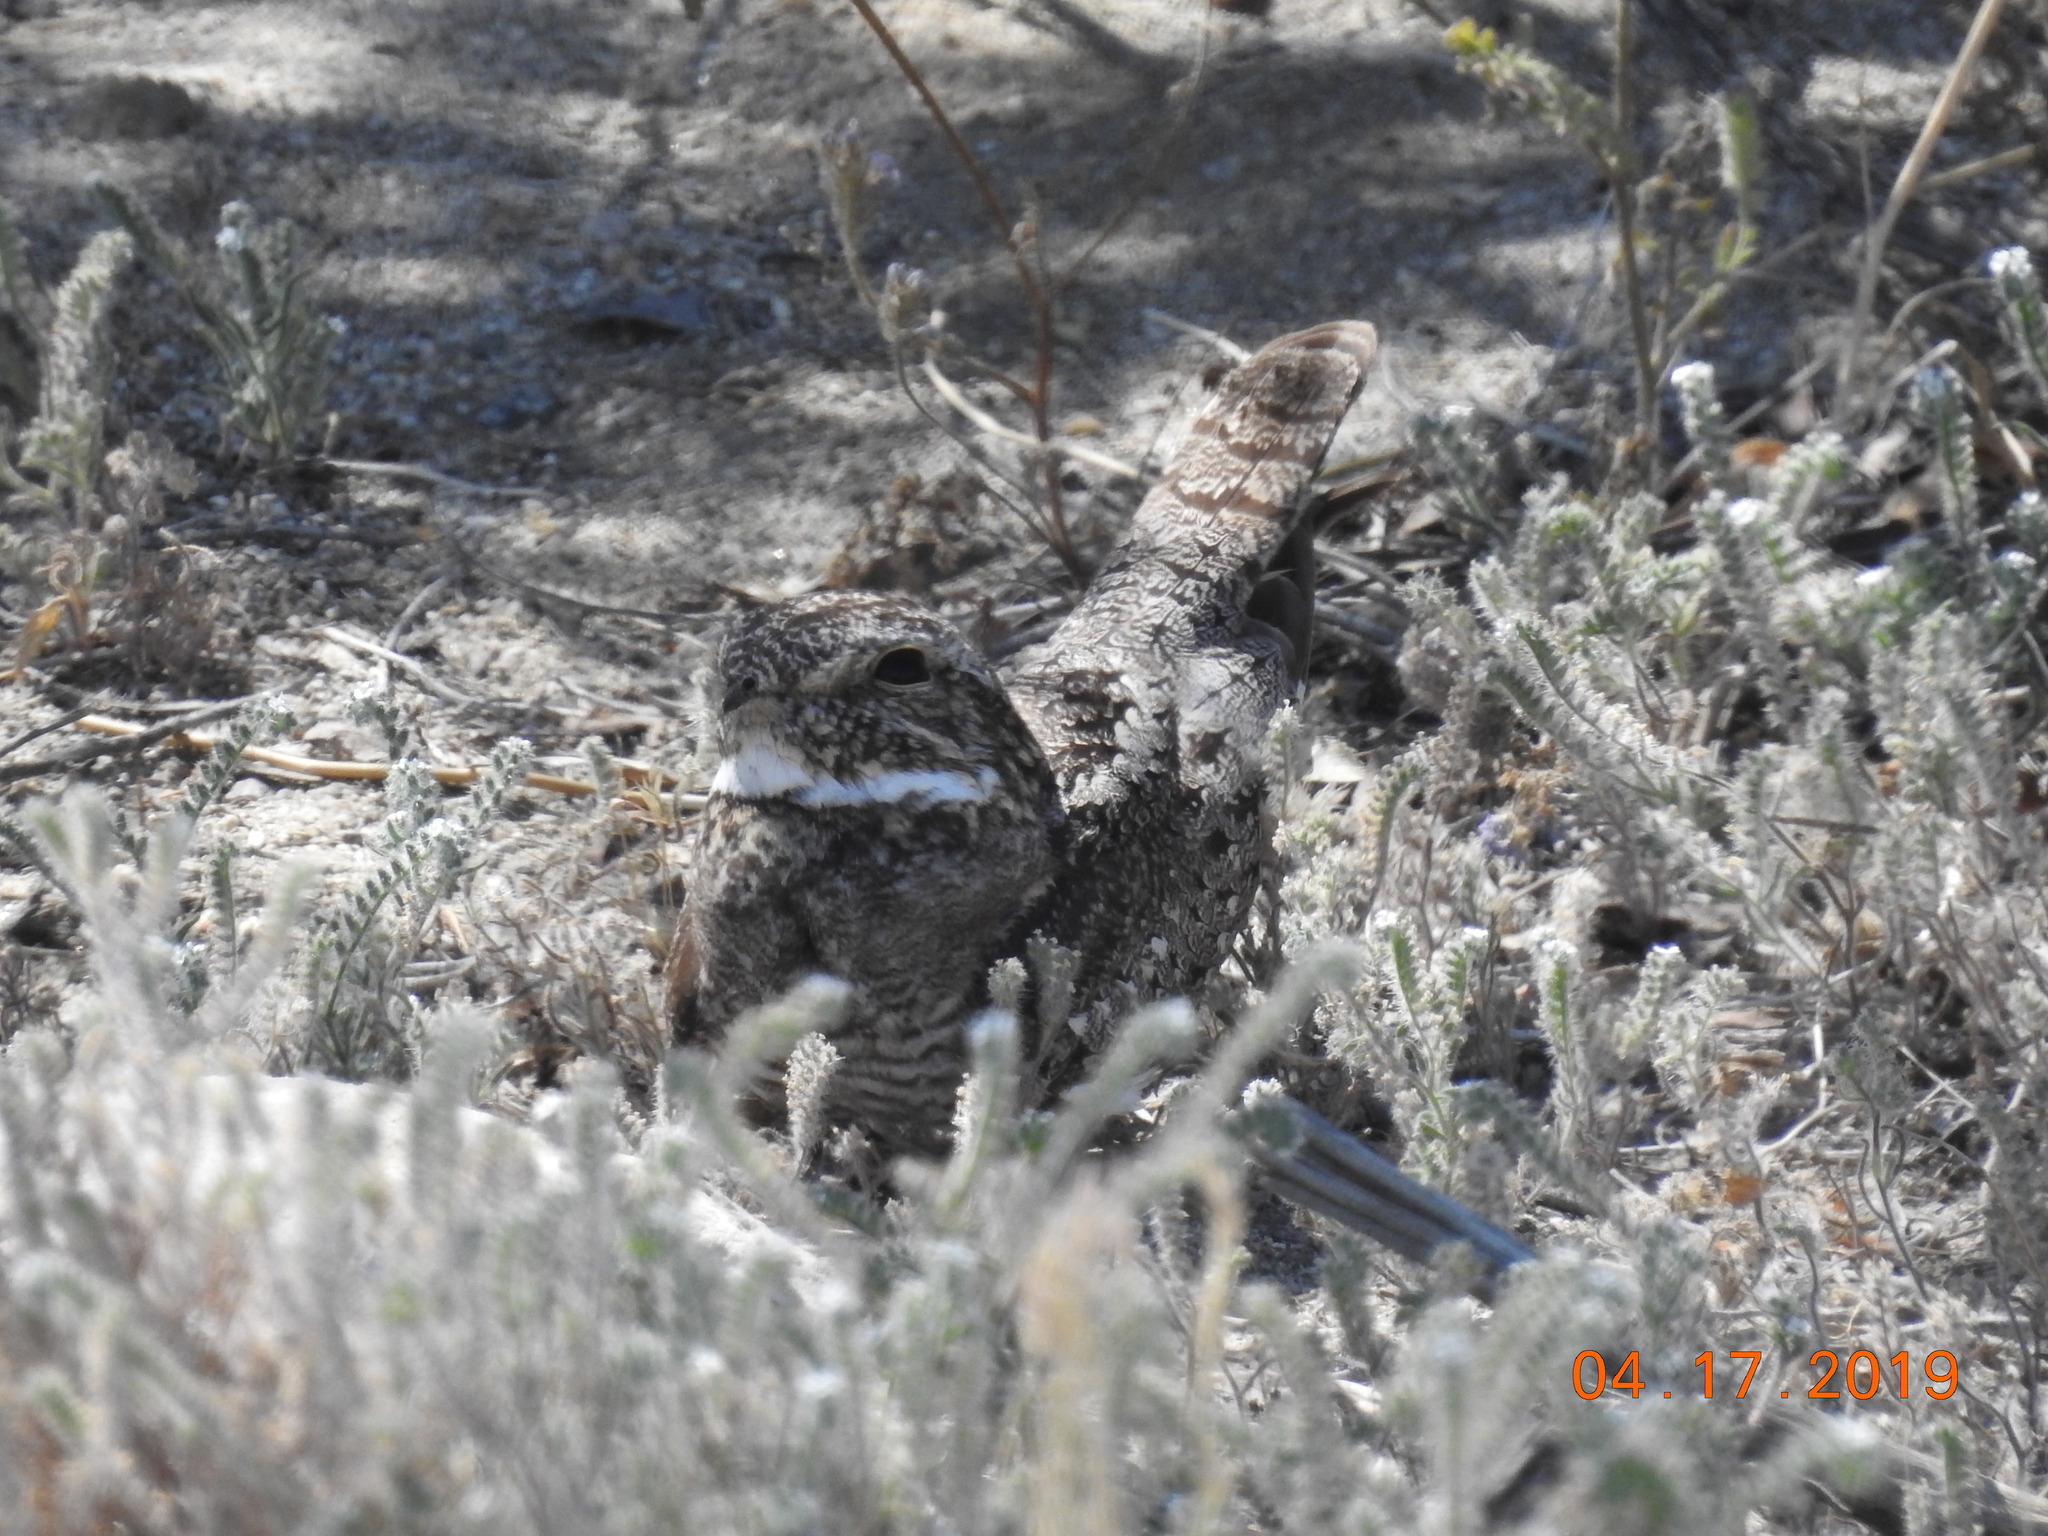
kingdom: Animalia
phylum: Chordata
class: Aves
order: Caprimulgiformes
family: Caprimulgidae
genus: Chordeiles
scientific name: Chordeiles acutipennis
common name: Lesser nighthawk
